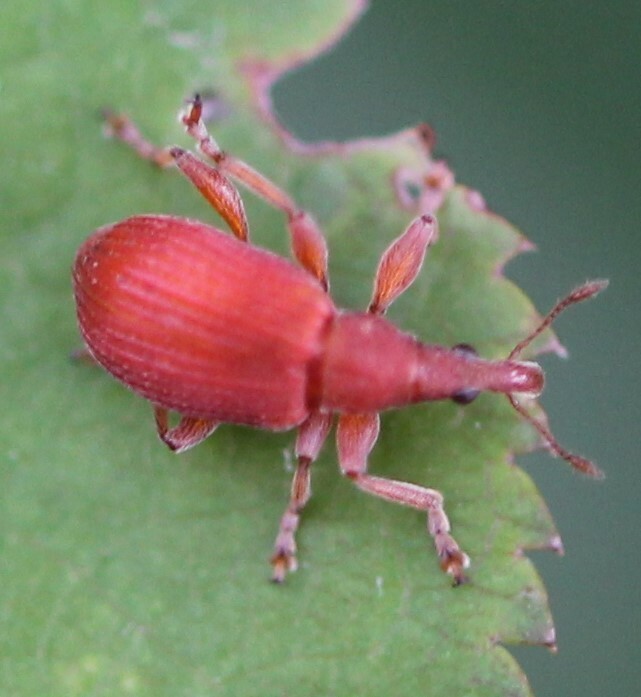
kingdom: Animalia
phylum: Arthropoda
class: Insecta
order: Coleoptera
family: Apionidae
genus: Apion
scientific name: Apion frumentarium
